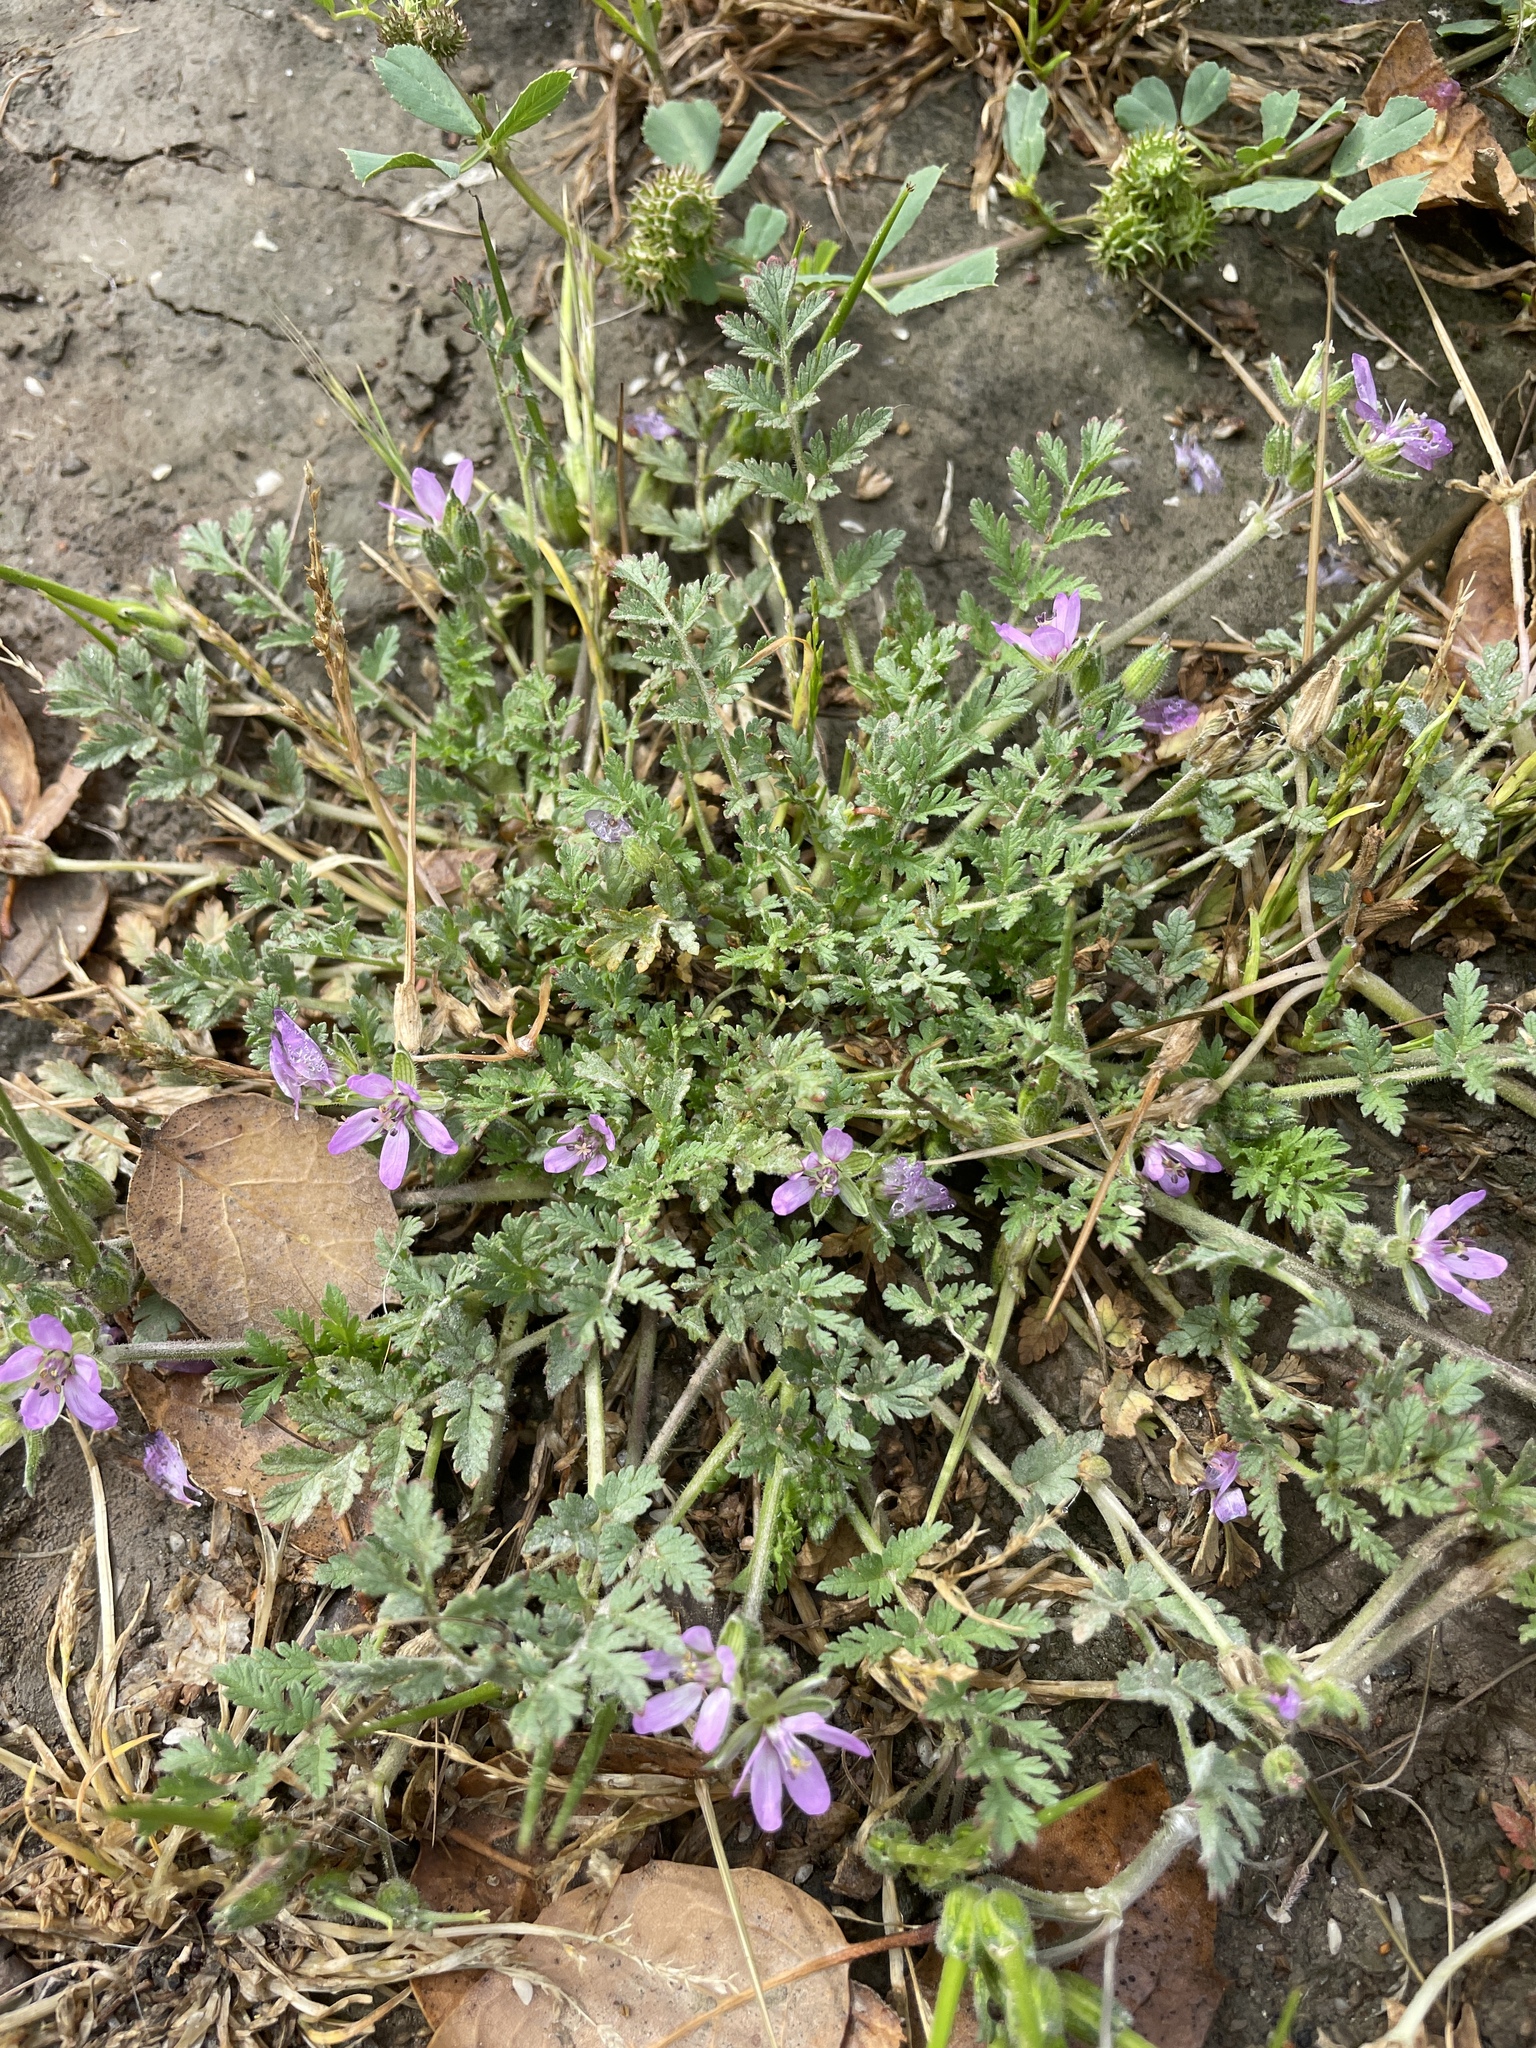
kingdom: Plantae
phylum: Tracheophyta
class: Magnoliopsida
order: Geraniales
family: Geraniaceae
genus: Erodium
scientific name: Erodium moschatum
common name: Musk stork's-bill
